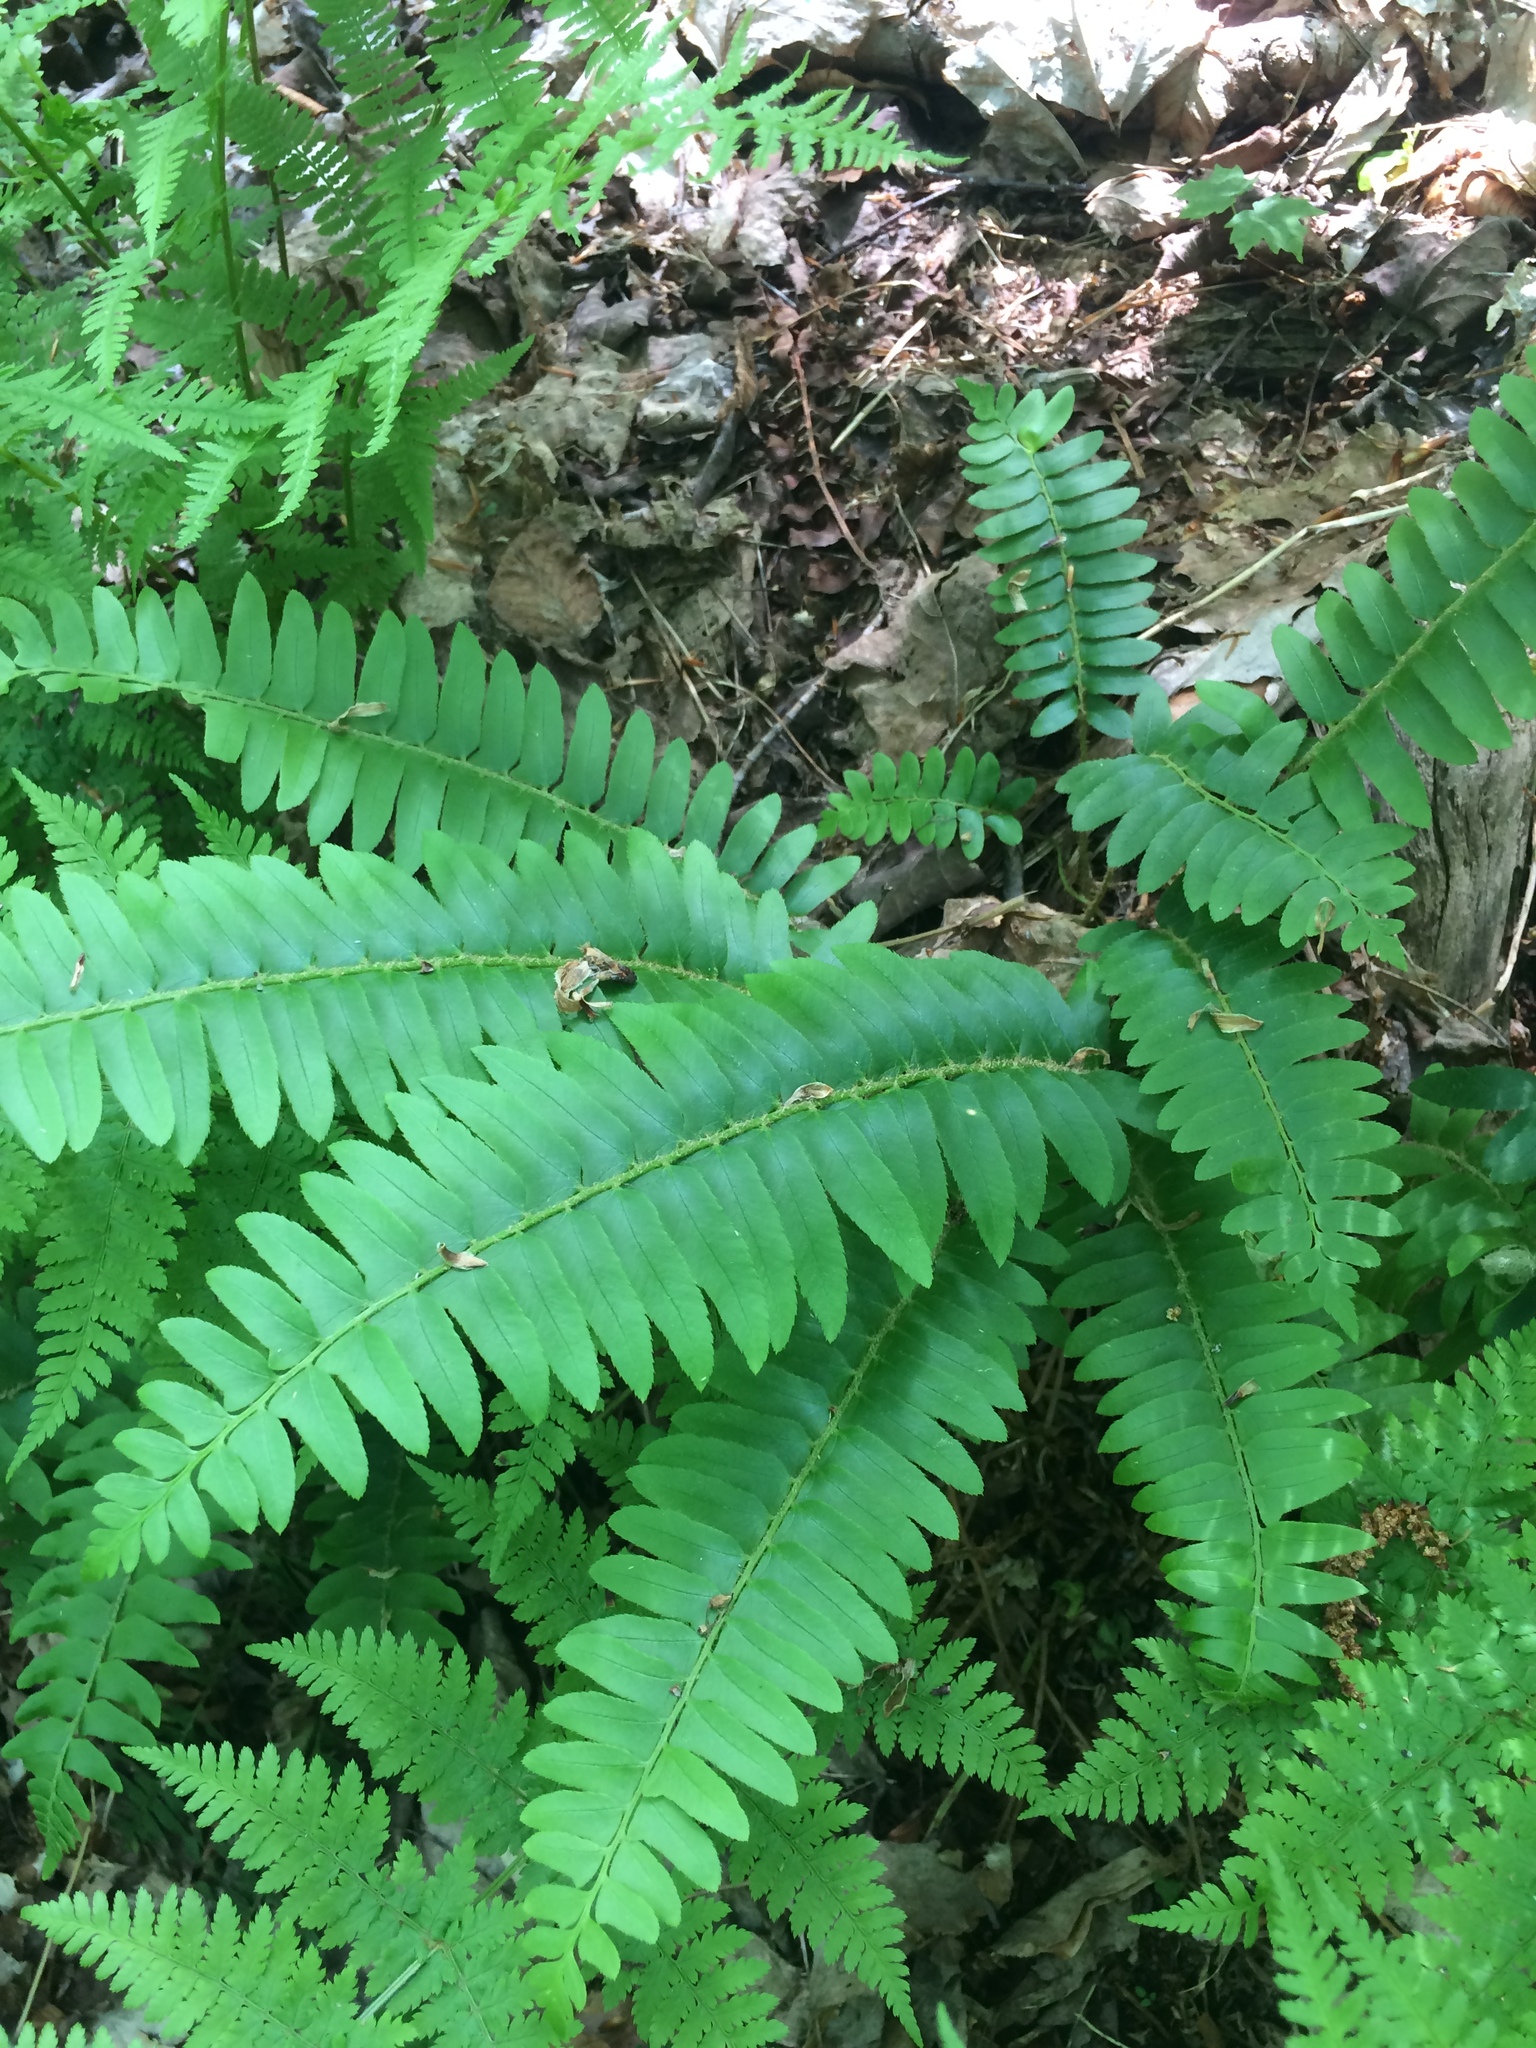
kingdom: Plantae
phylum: Tracheophyta
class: Polypodiopsida
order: Polypodiales
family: Dryopteridaceae
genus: Polystichum
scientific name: Polystichum acrostichoides
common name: Christmas fern
